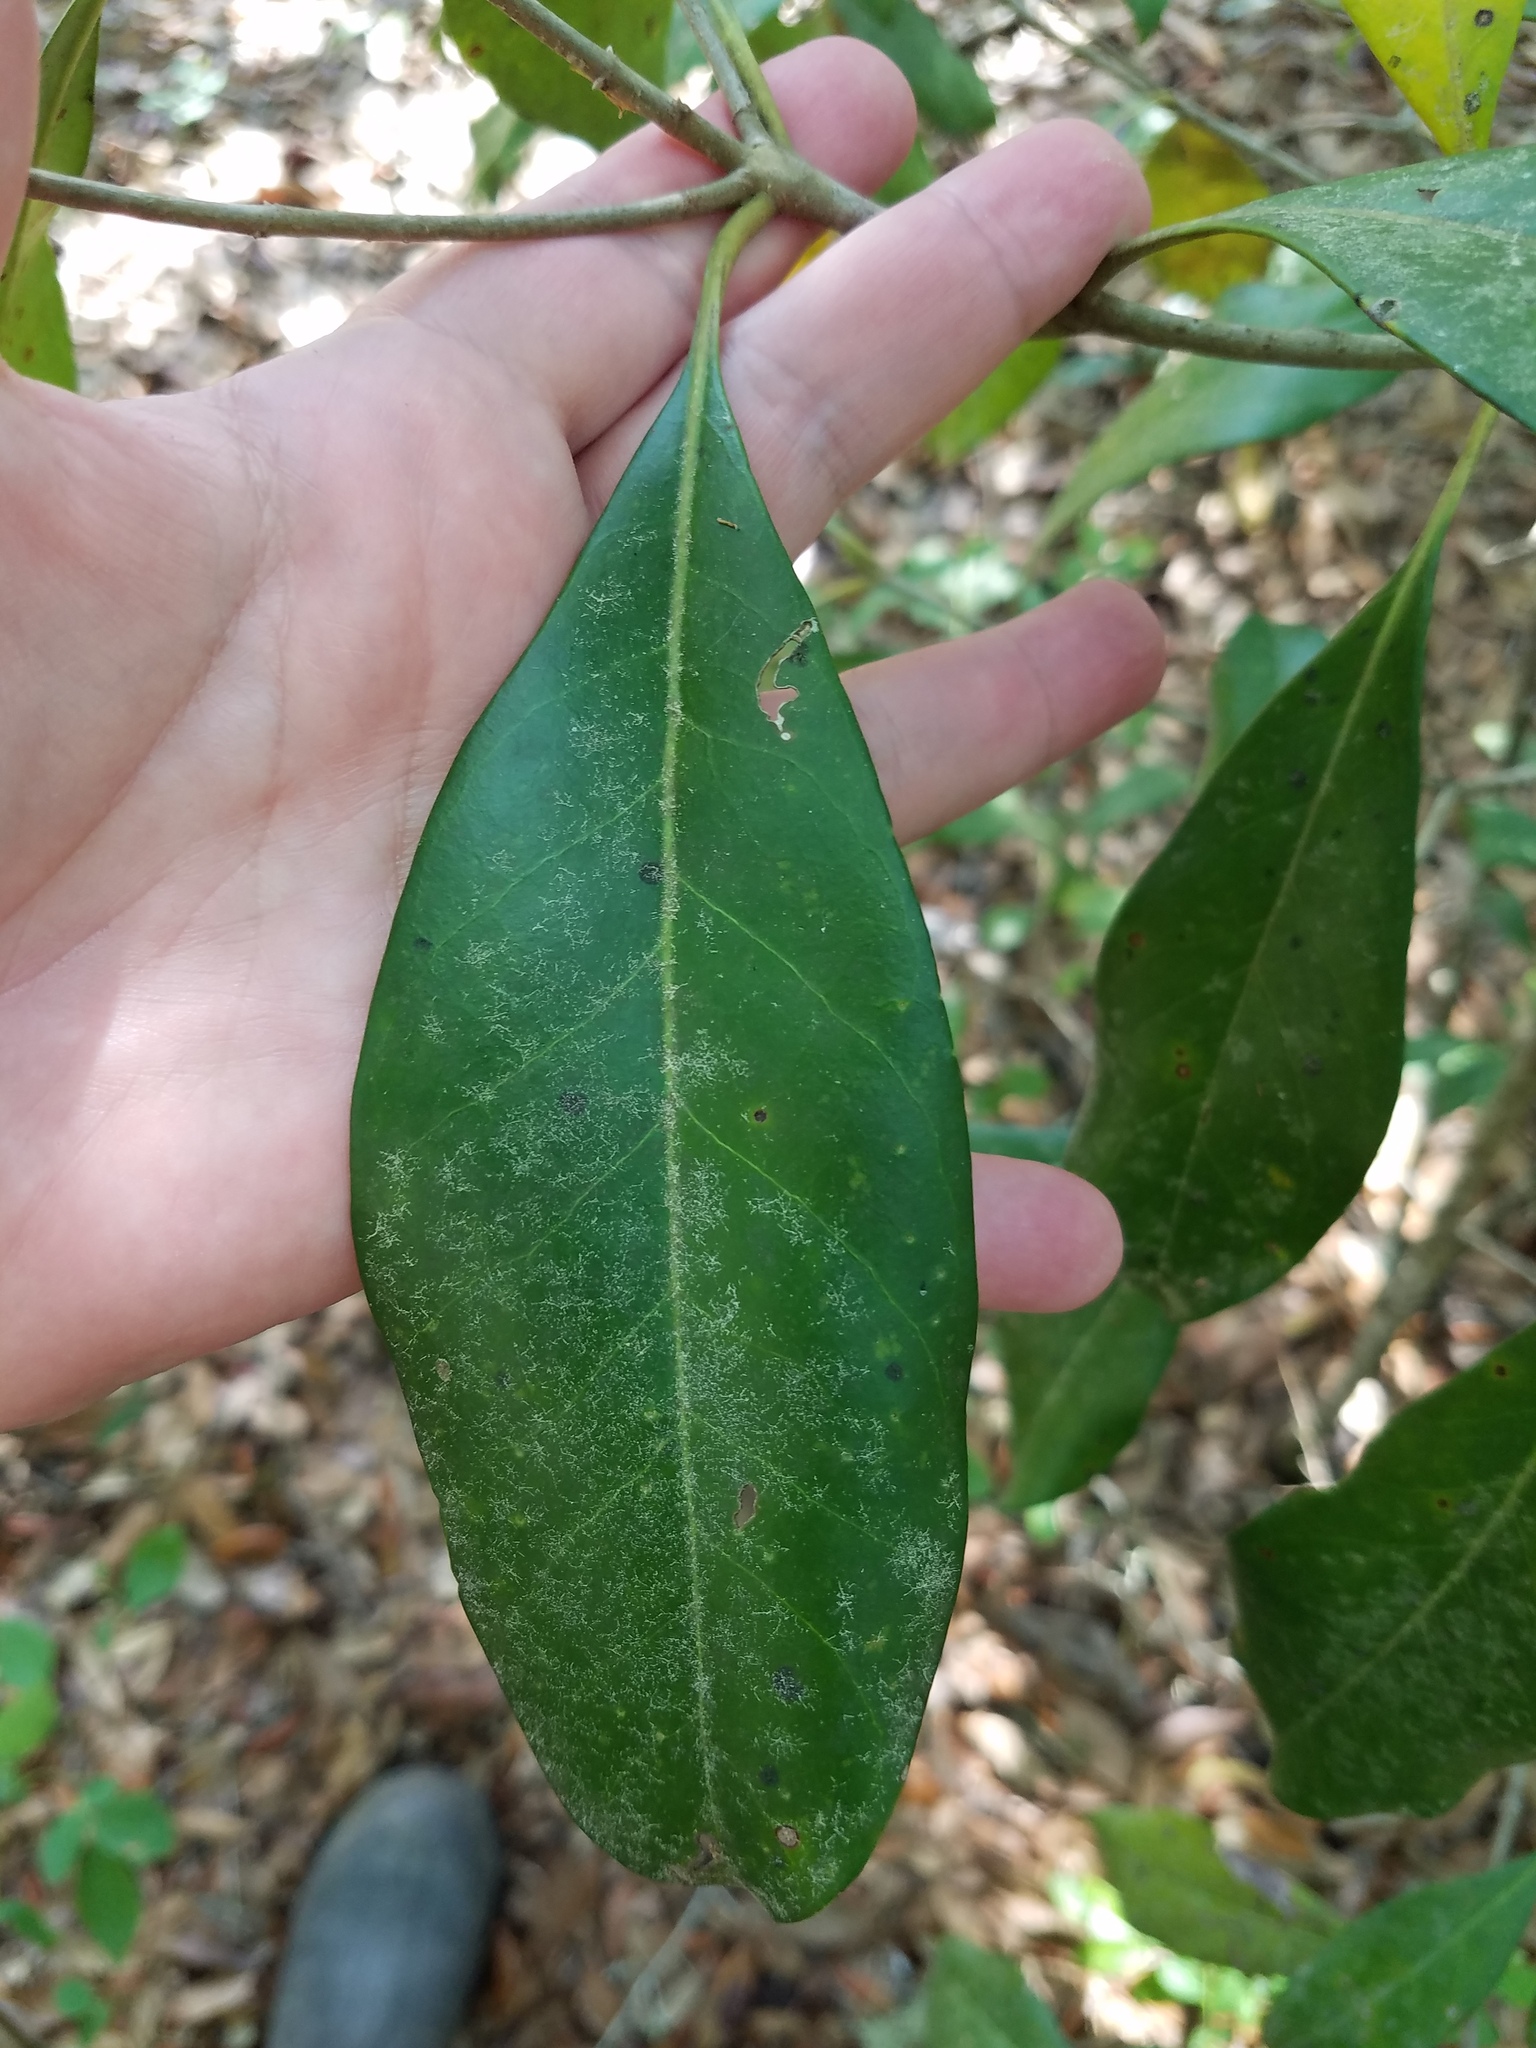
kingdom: Plantae
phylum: Tracheophyta
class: Magnoliopsida
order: Lamiales
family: Oleaceae
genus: Cartrema
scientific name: Cartrema americana
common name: Devilwood
